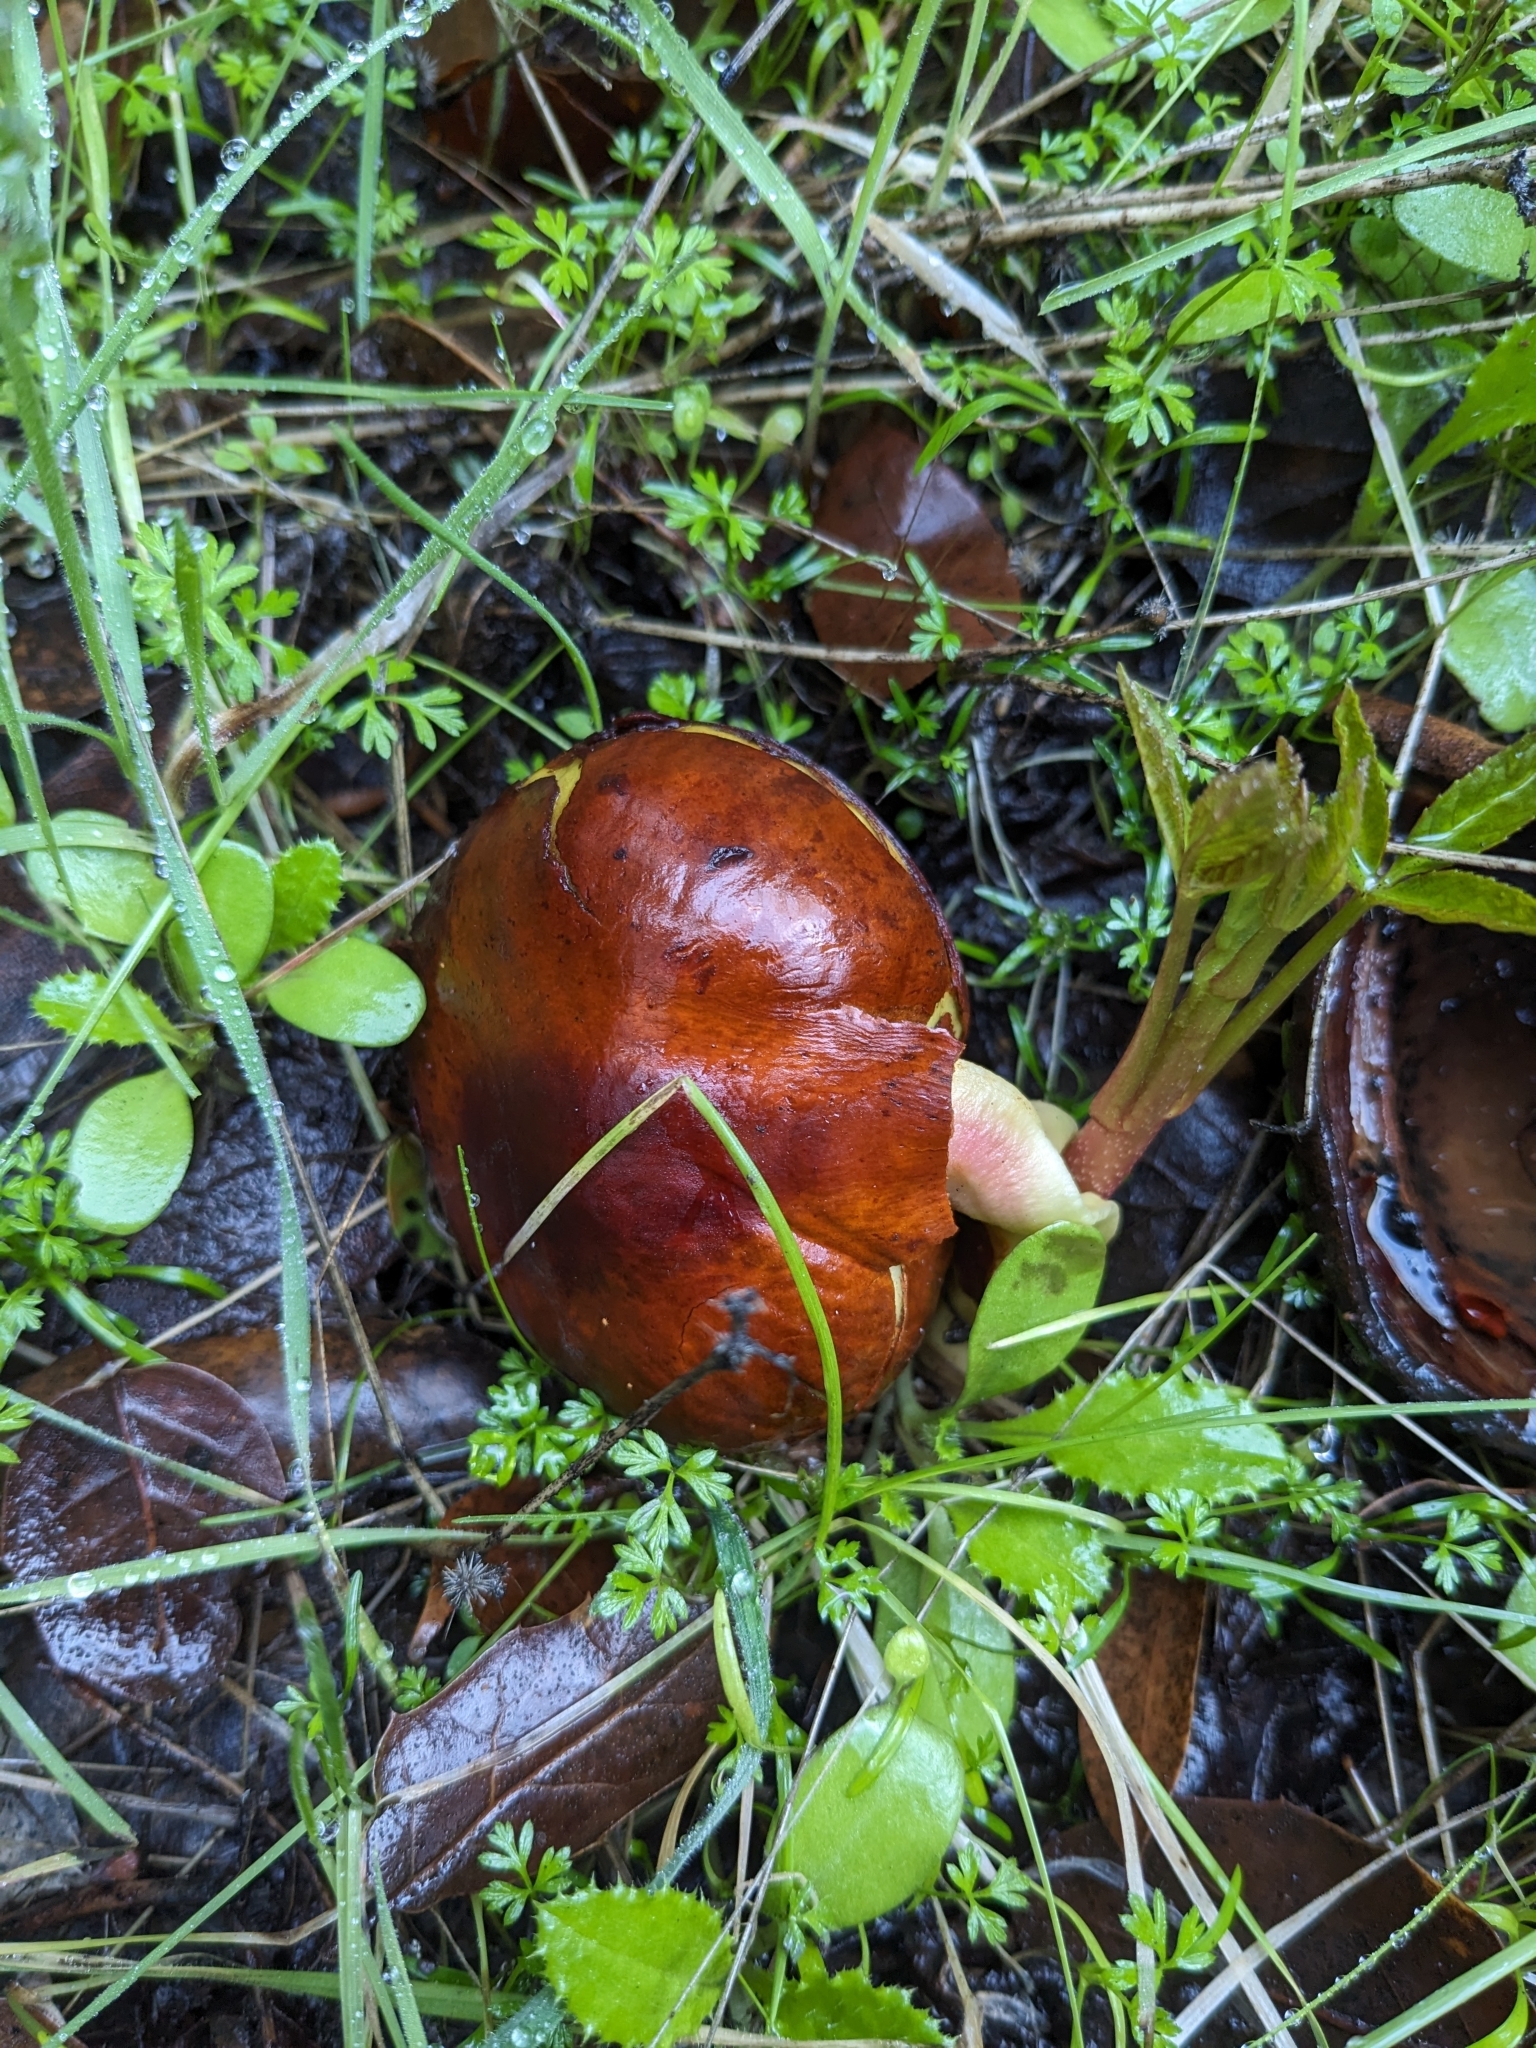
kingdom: Plantae
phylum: Tracheophyta
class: Magnoliopsida
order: Sapindales
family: Sapindaceae
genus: Aesculus
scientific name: Aesculus californica
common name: California buckeye
